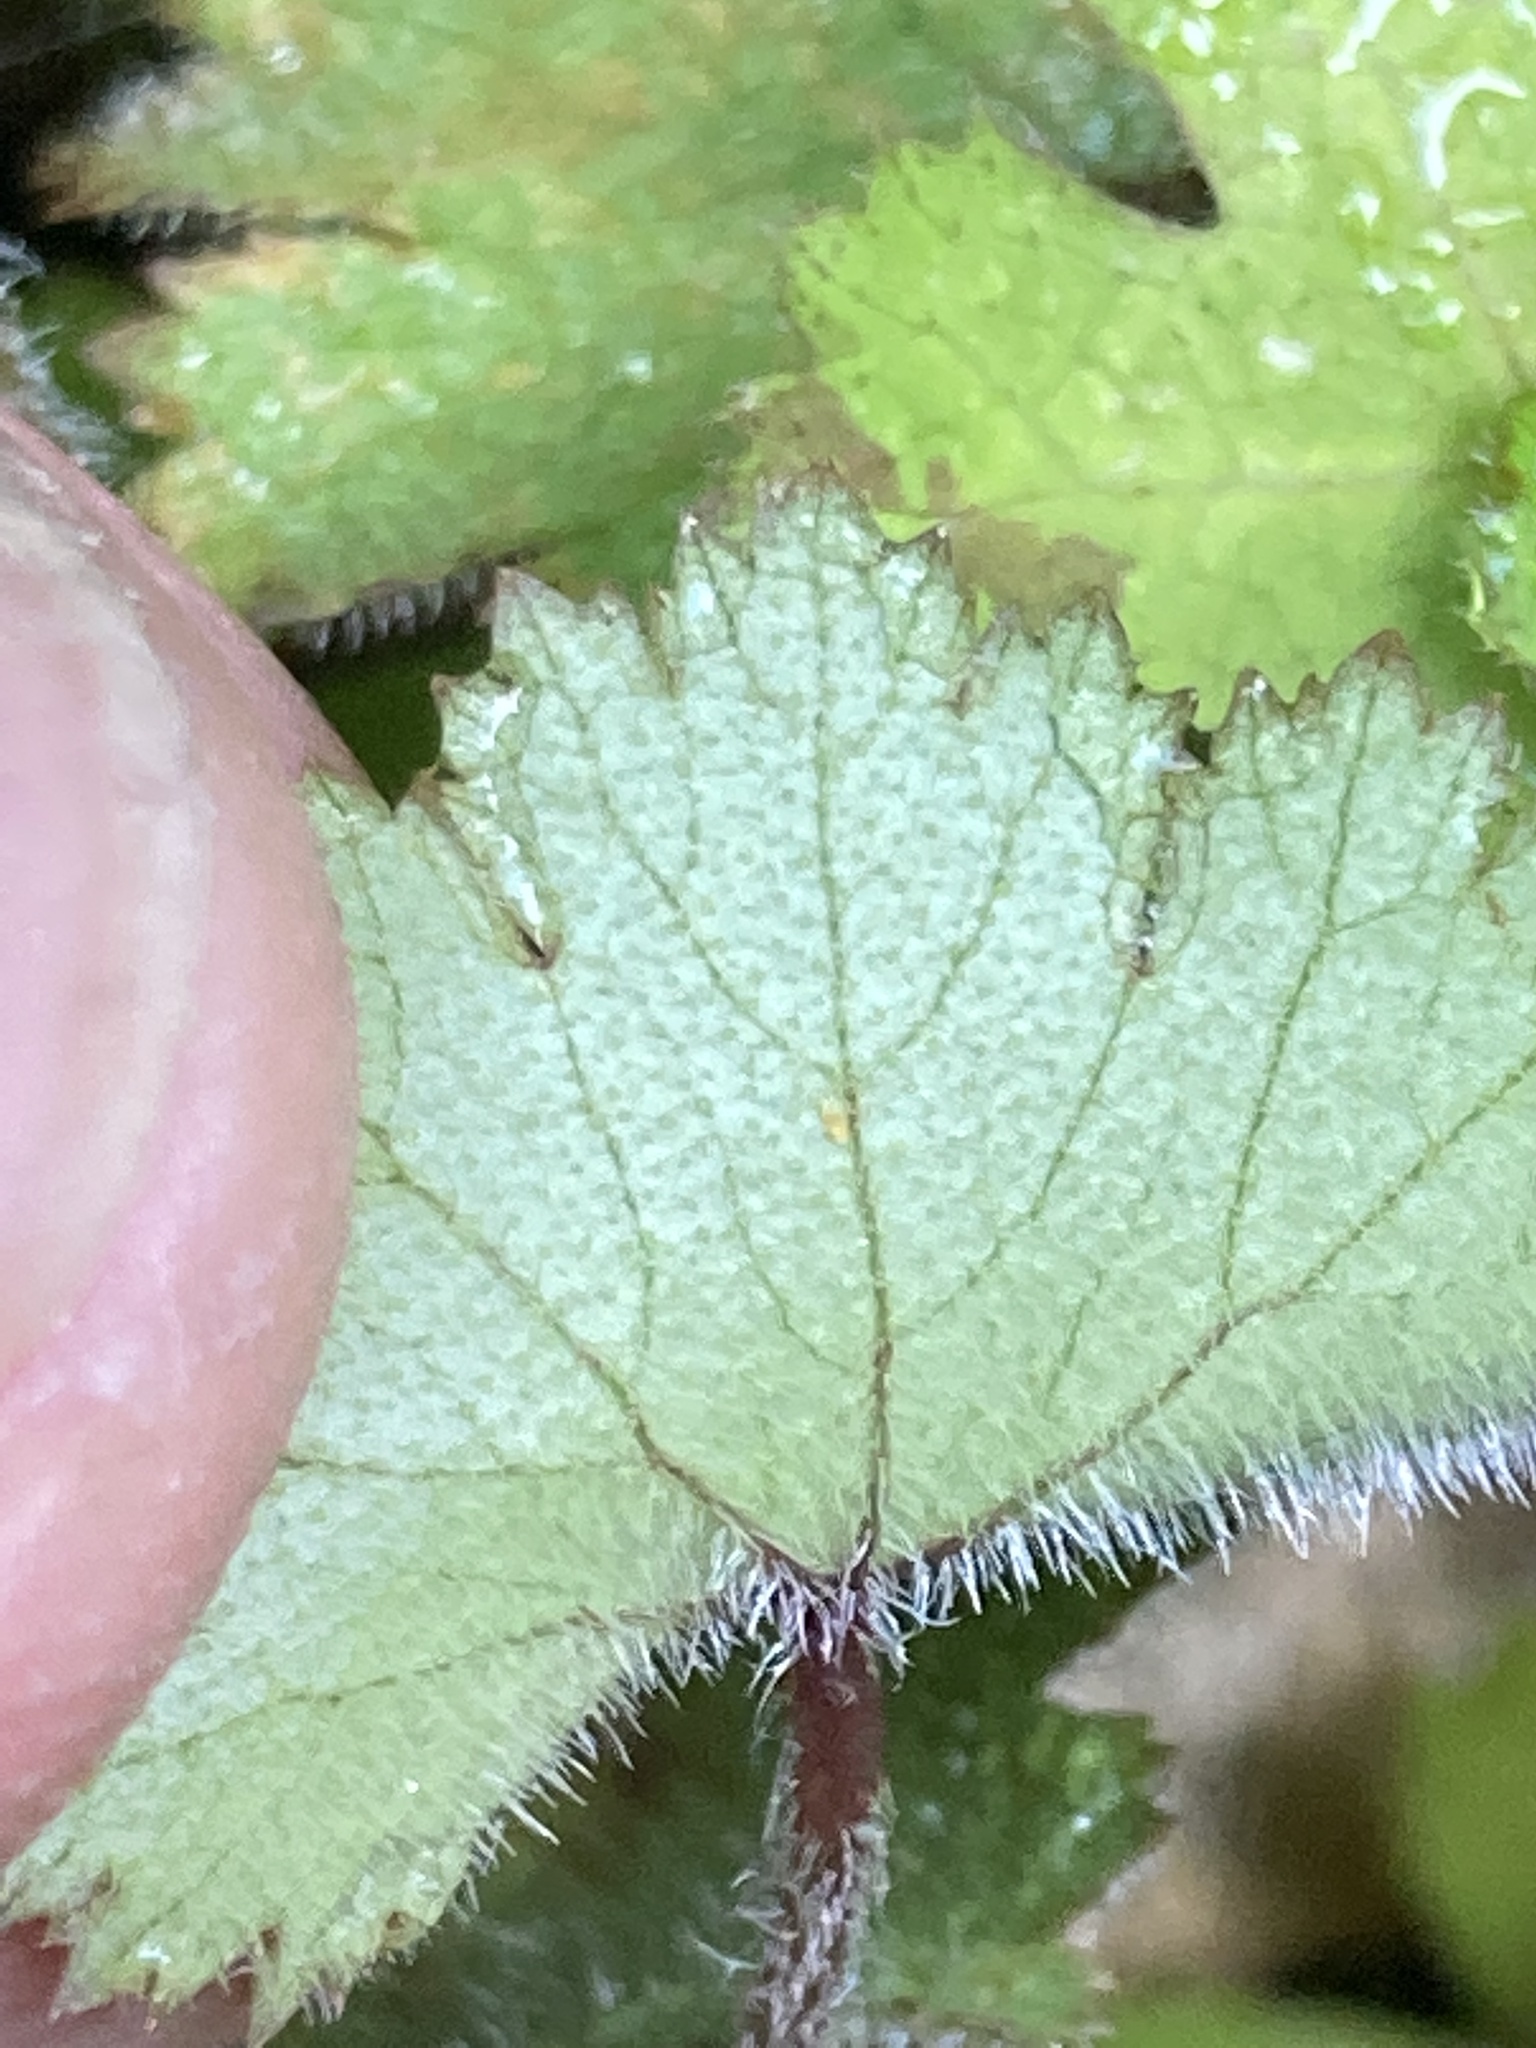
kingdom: Plantae
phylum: Tracheophyta
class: Magnoliopsida
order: Apiales
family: Araliaceae
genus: Hydrocotyle
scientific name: Hydrocotyle moschata
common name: Hairy pennywort
